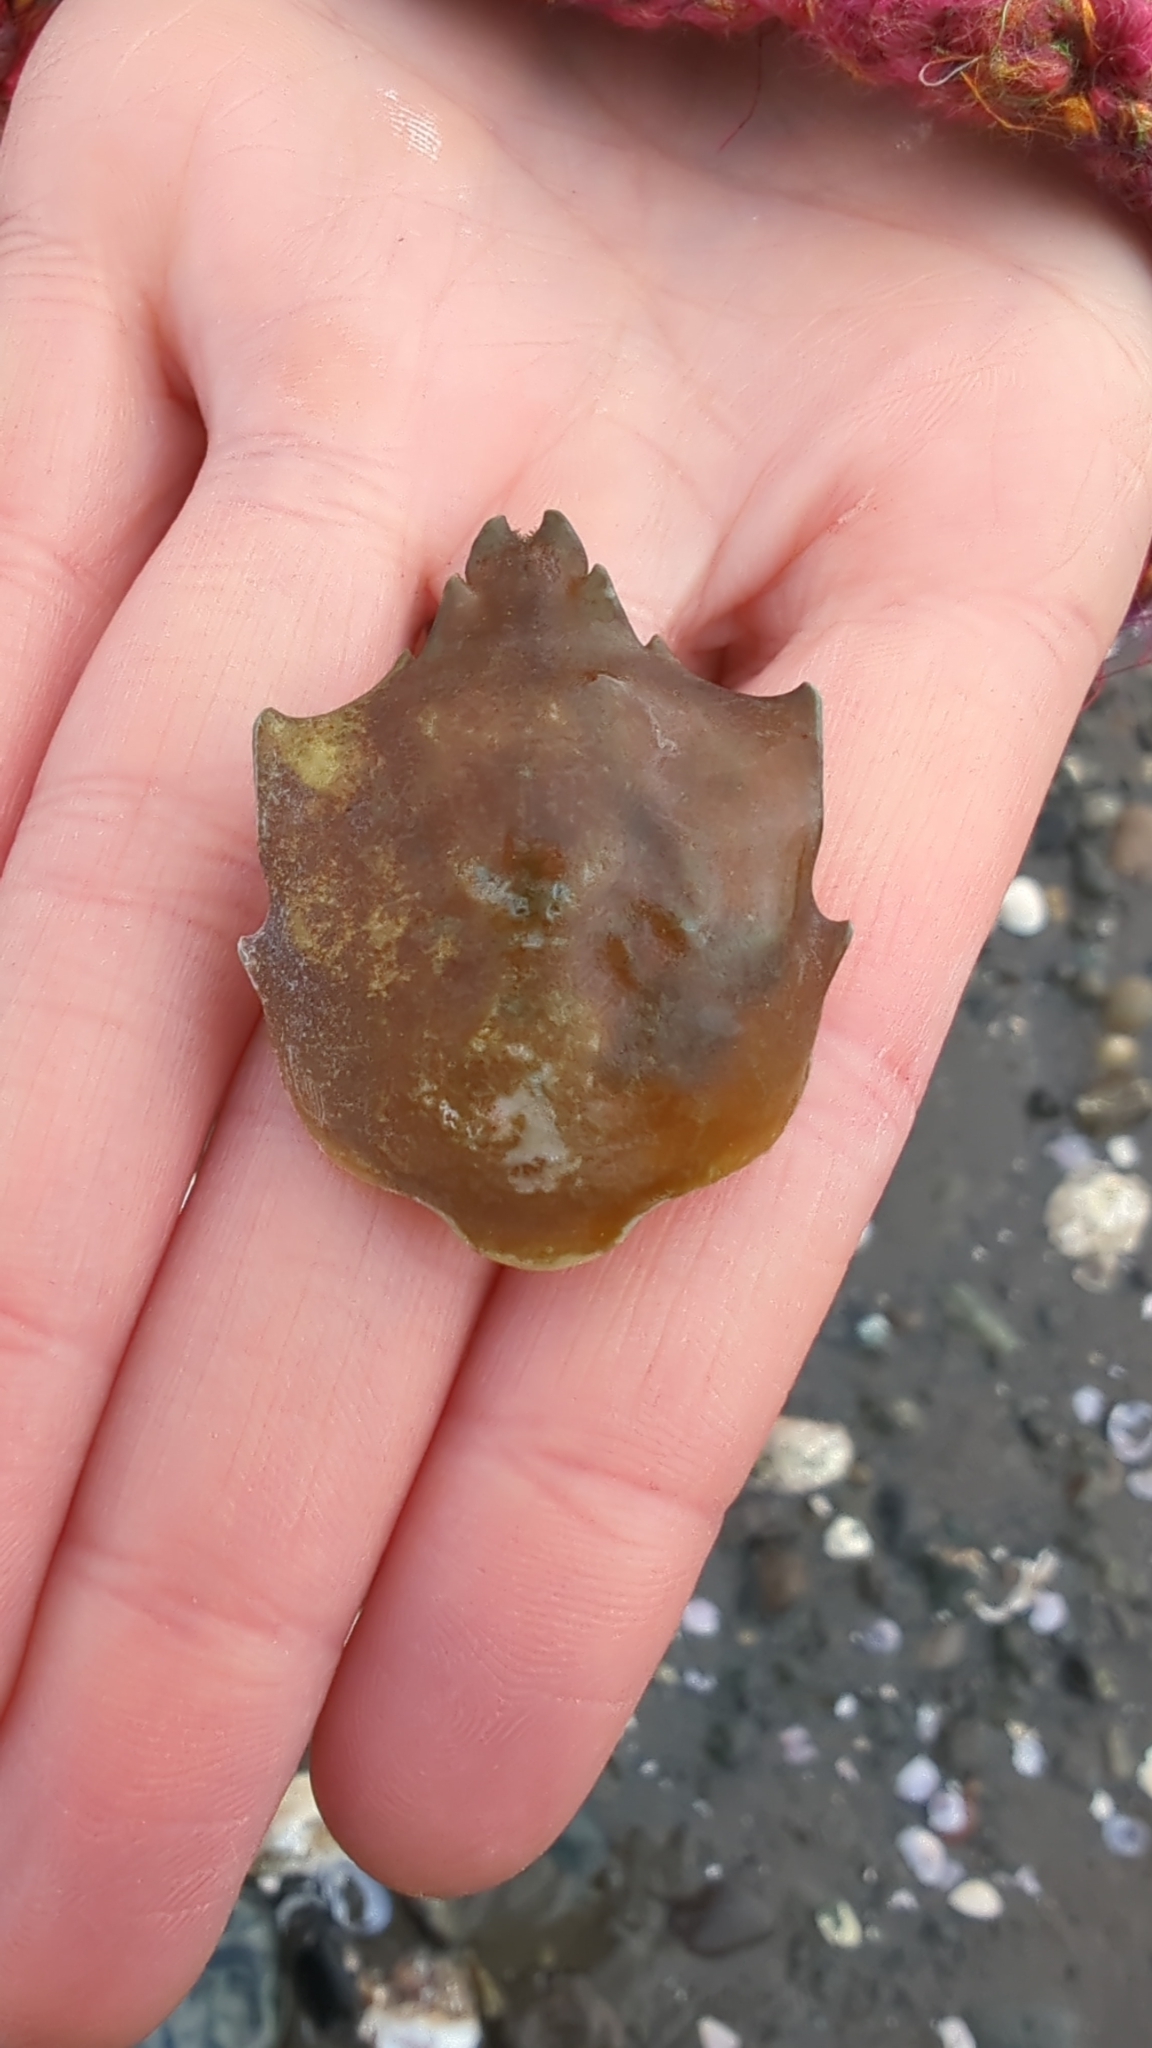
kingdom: Animalia
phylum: Arthropoda
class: Malacostraca
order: Decapoda
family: Epialtidae
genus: Pugettia
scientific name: Pugettia producta
